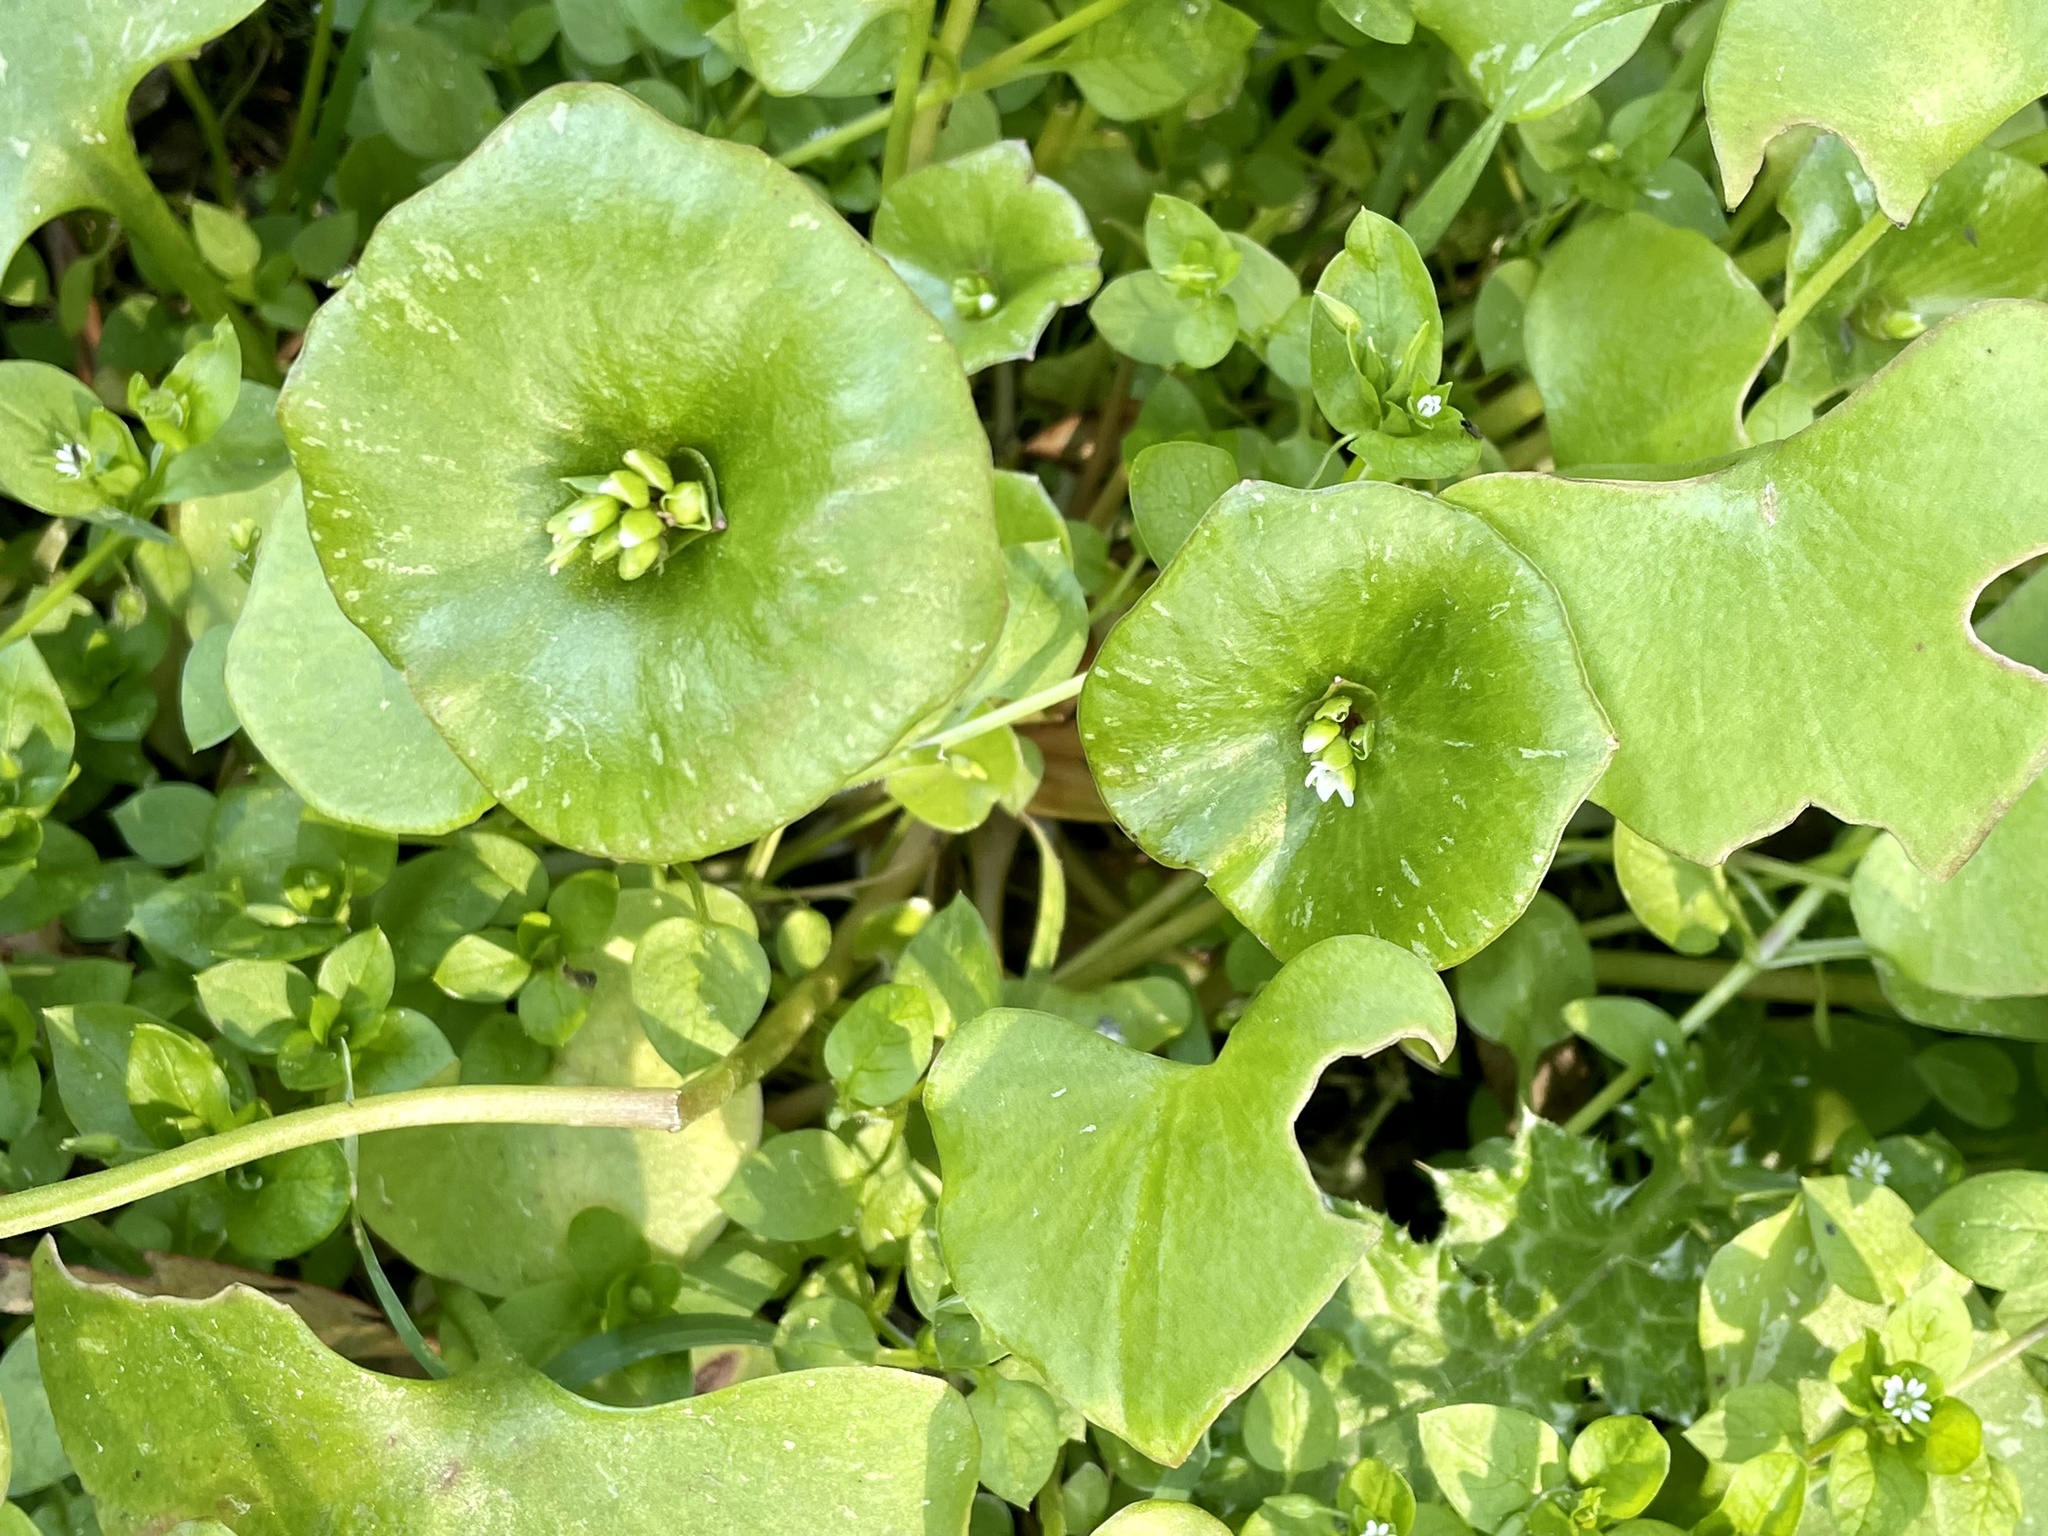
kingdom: Plantae
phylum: Tracheophyta
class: Magnoliopsida
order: Caryophyllales
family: Montiaceae
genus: Claytonia
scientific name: Claytonia perfoliata
